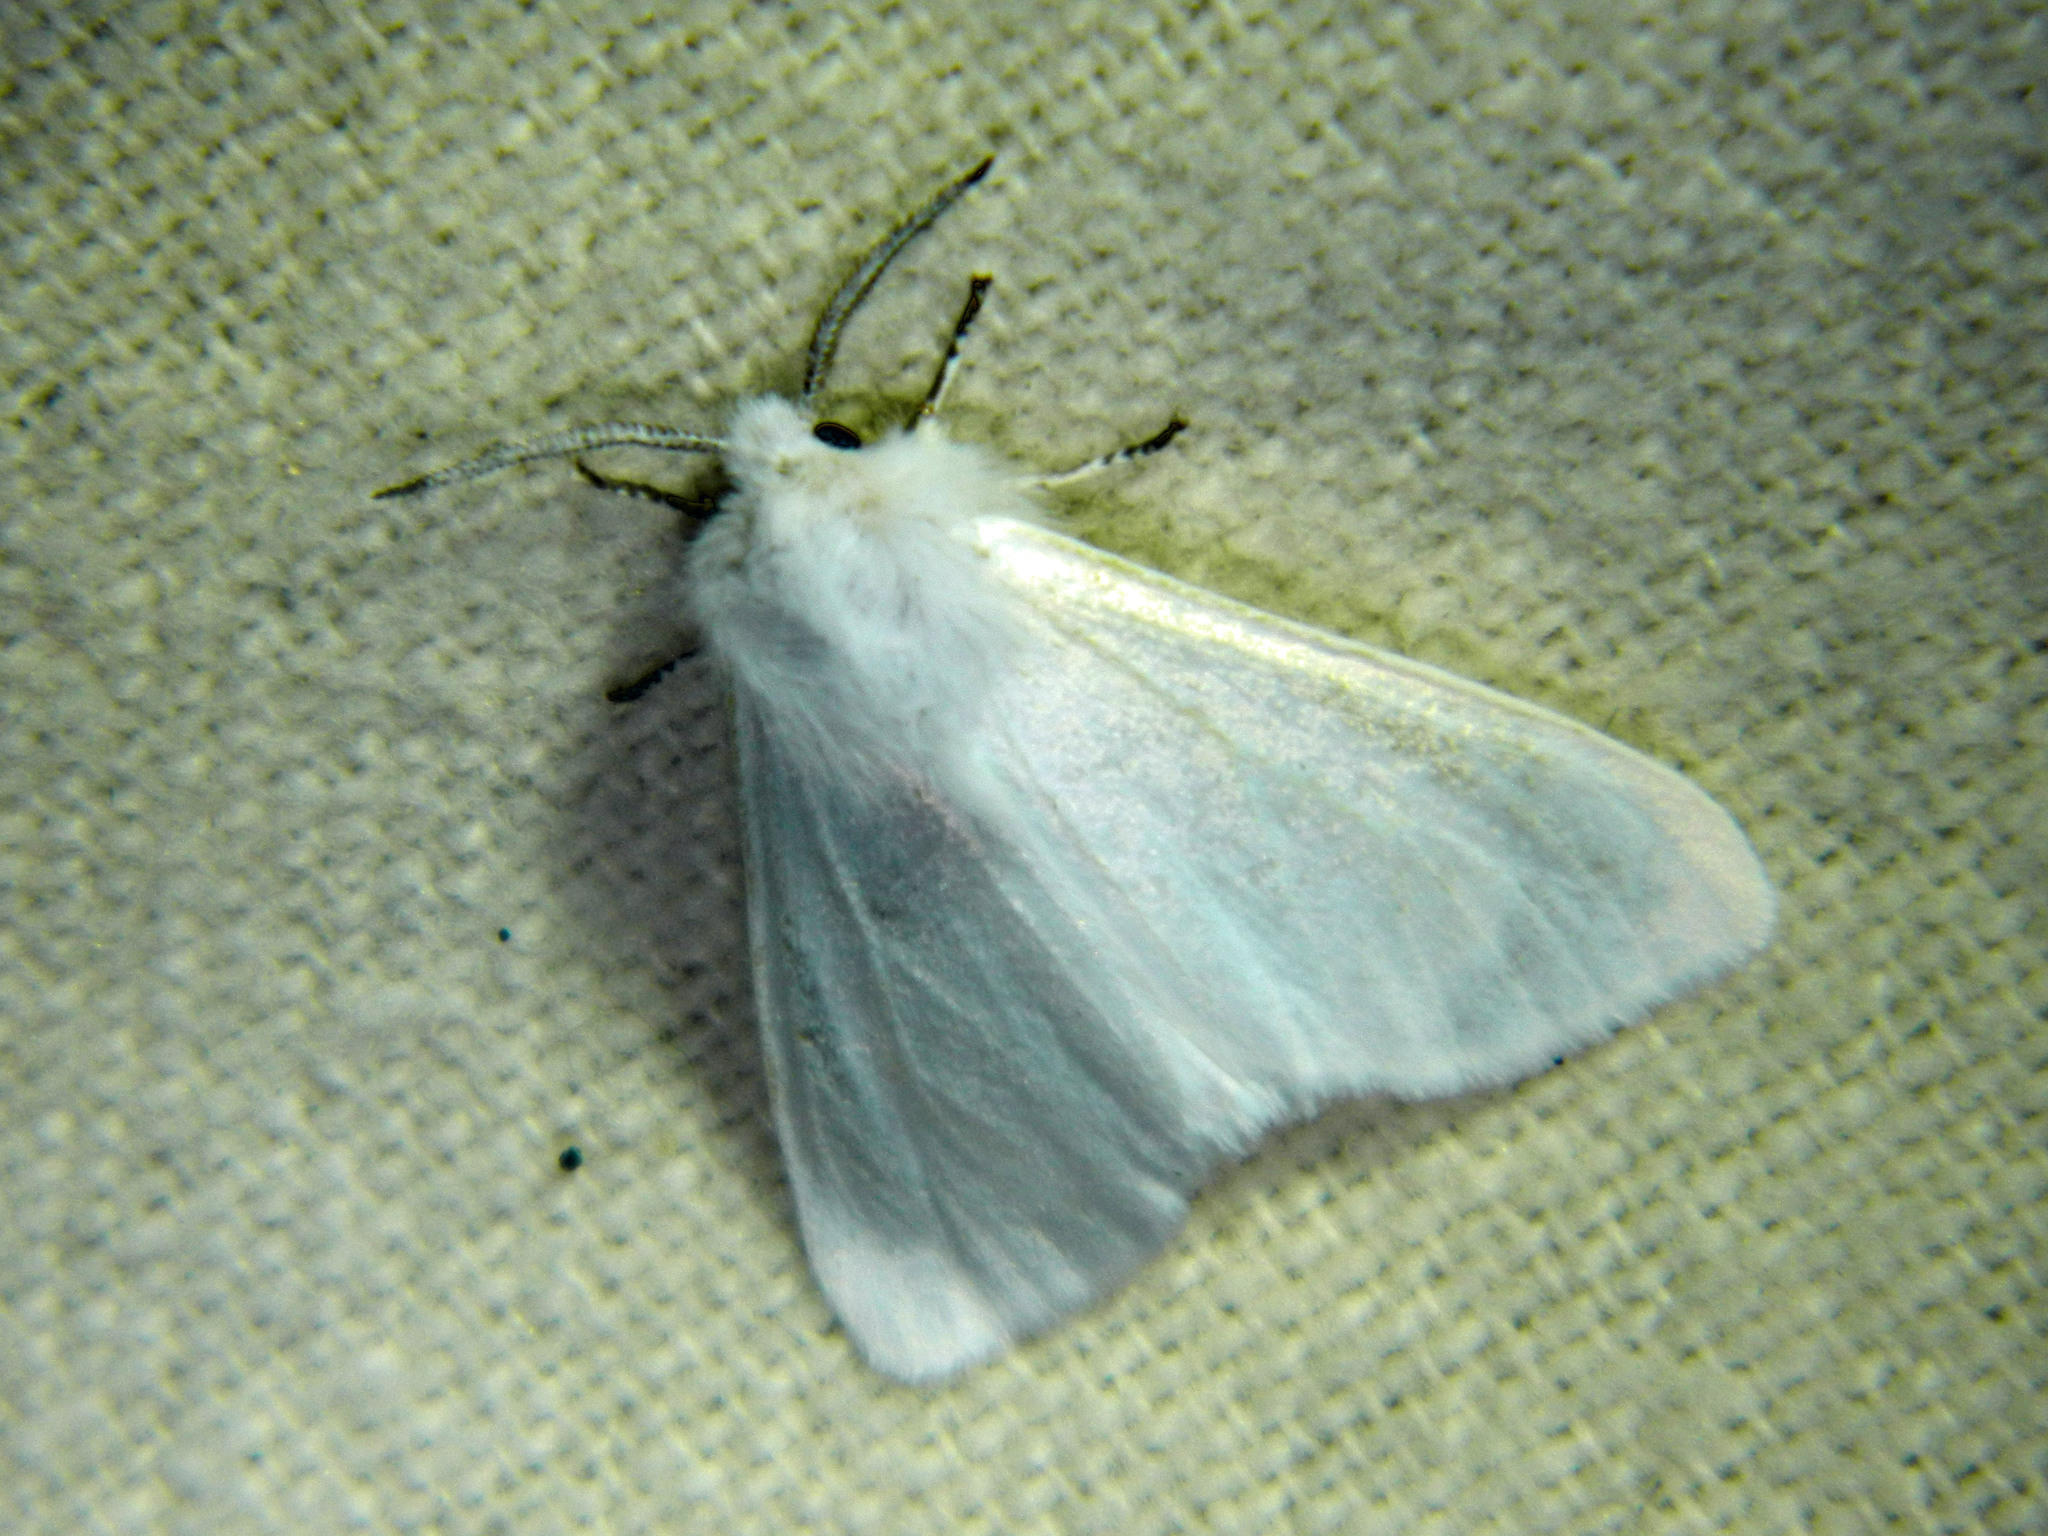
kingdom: Animalia
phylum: Arthropoda
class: Insecta
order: Lepidoptera
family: Erebidae
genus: Hyphantria
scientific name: Hyphantria cunea
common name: American white moth
